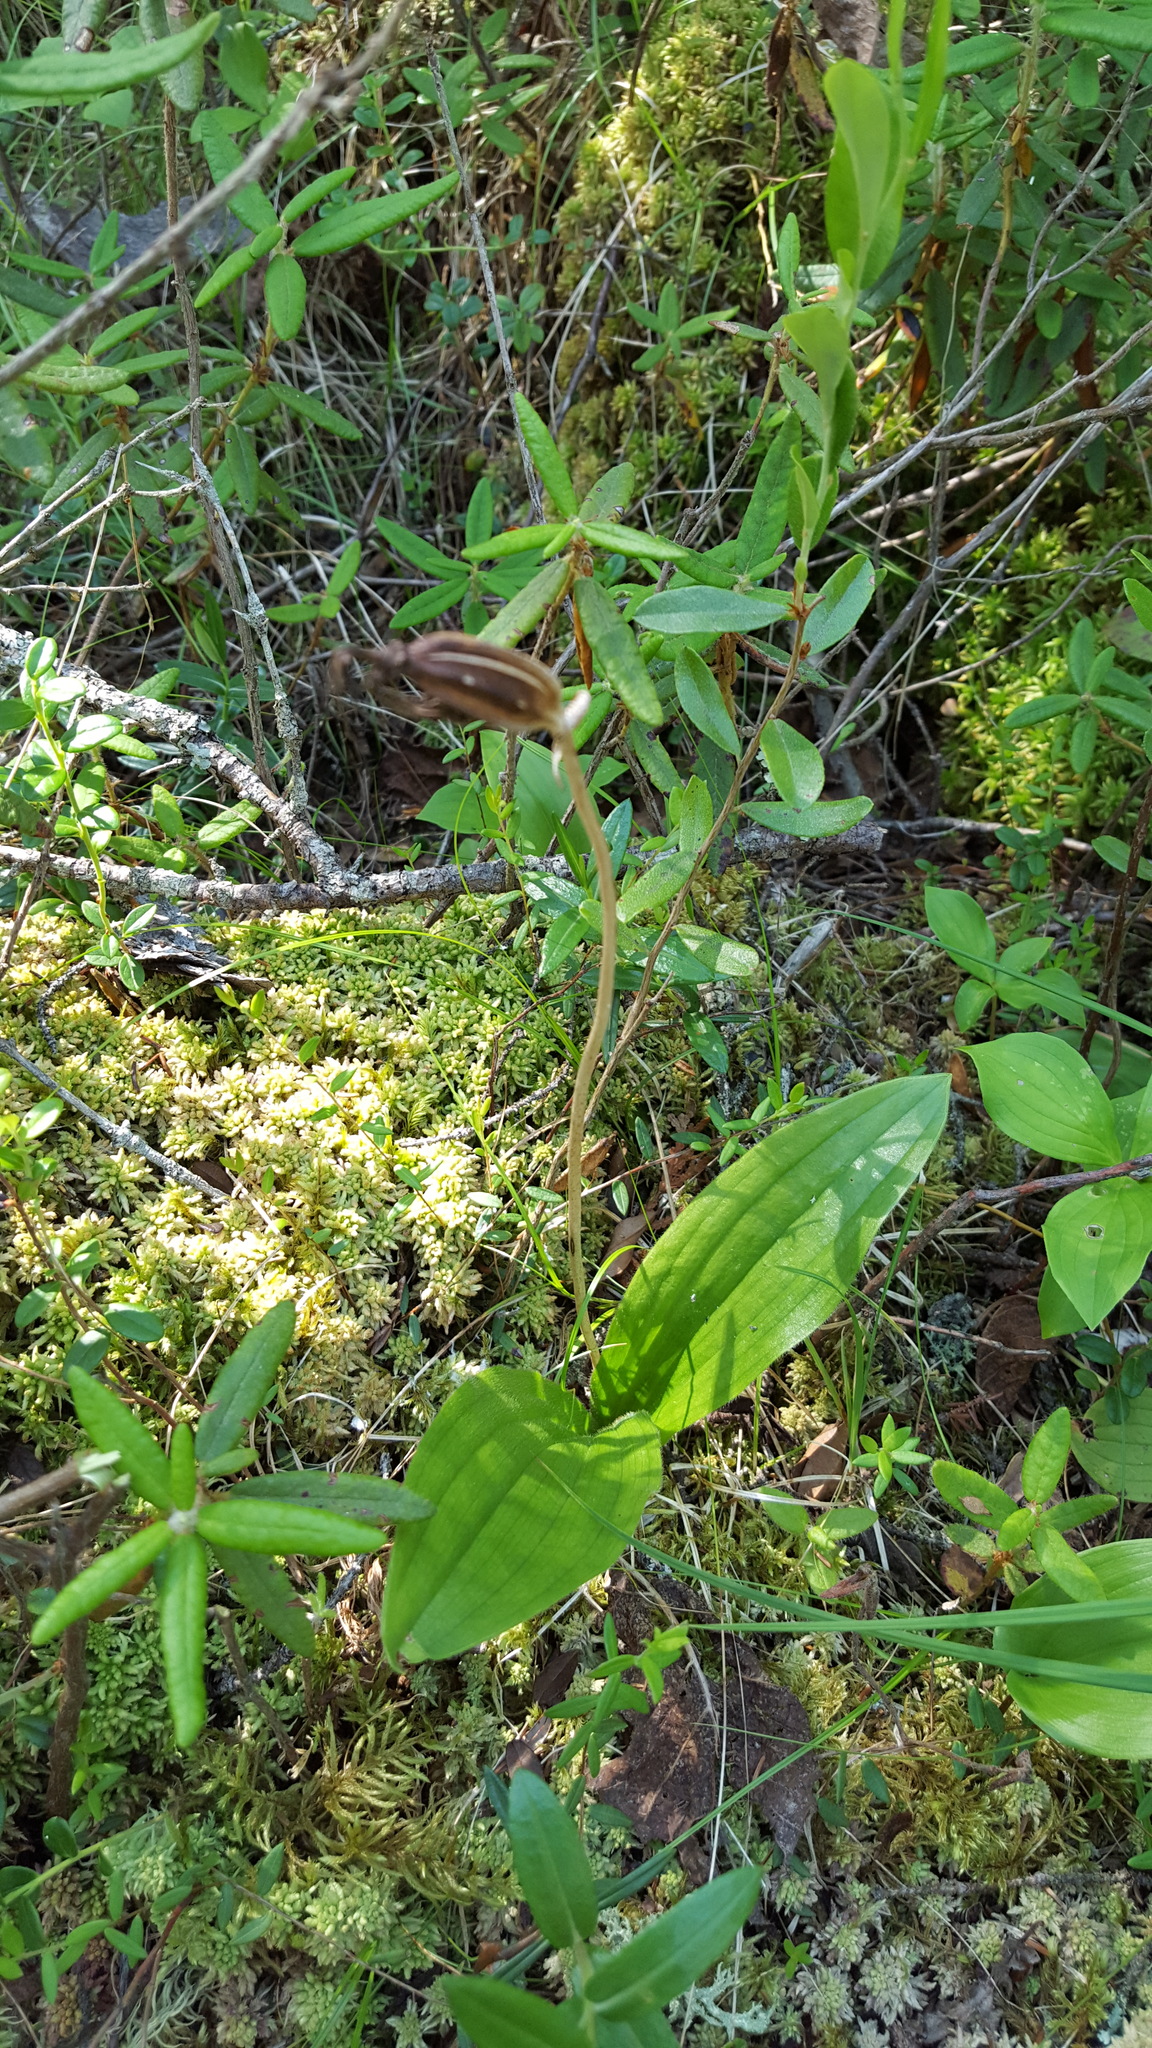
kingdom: Plantae
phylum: Tracheophyta
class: Liliopsida
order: Asparagales
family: Orchidaceae
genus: Cypripedium
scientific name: Cypripedium acaule
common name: Pink lady's-slipper
